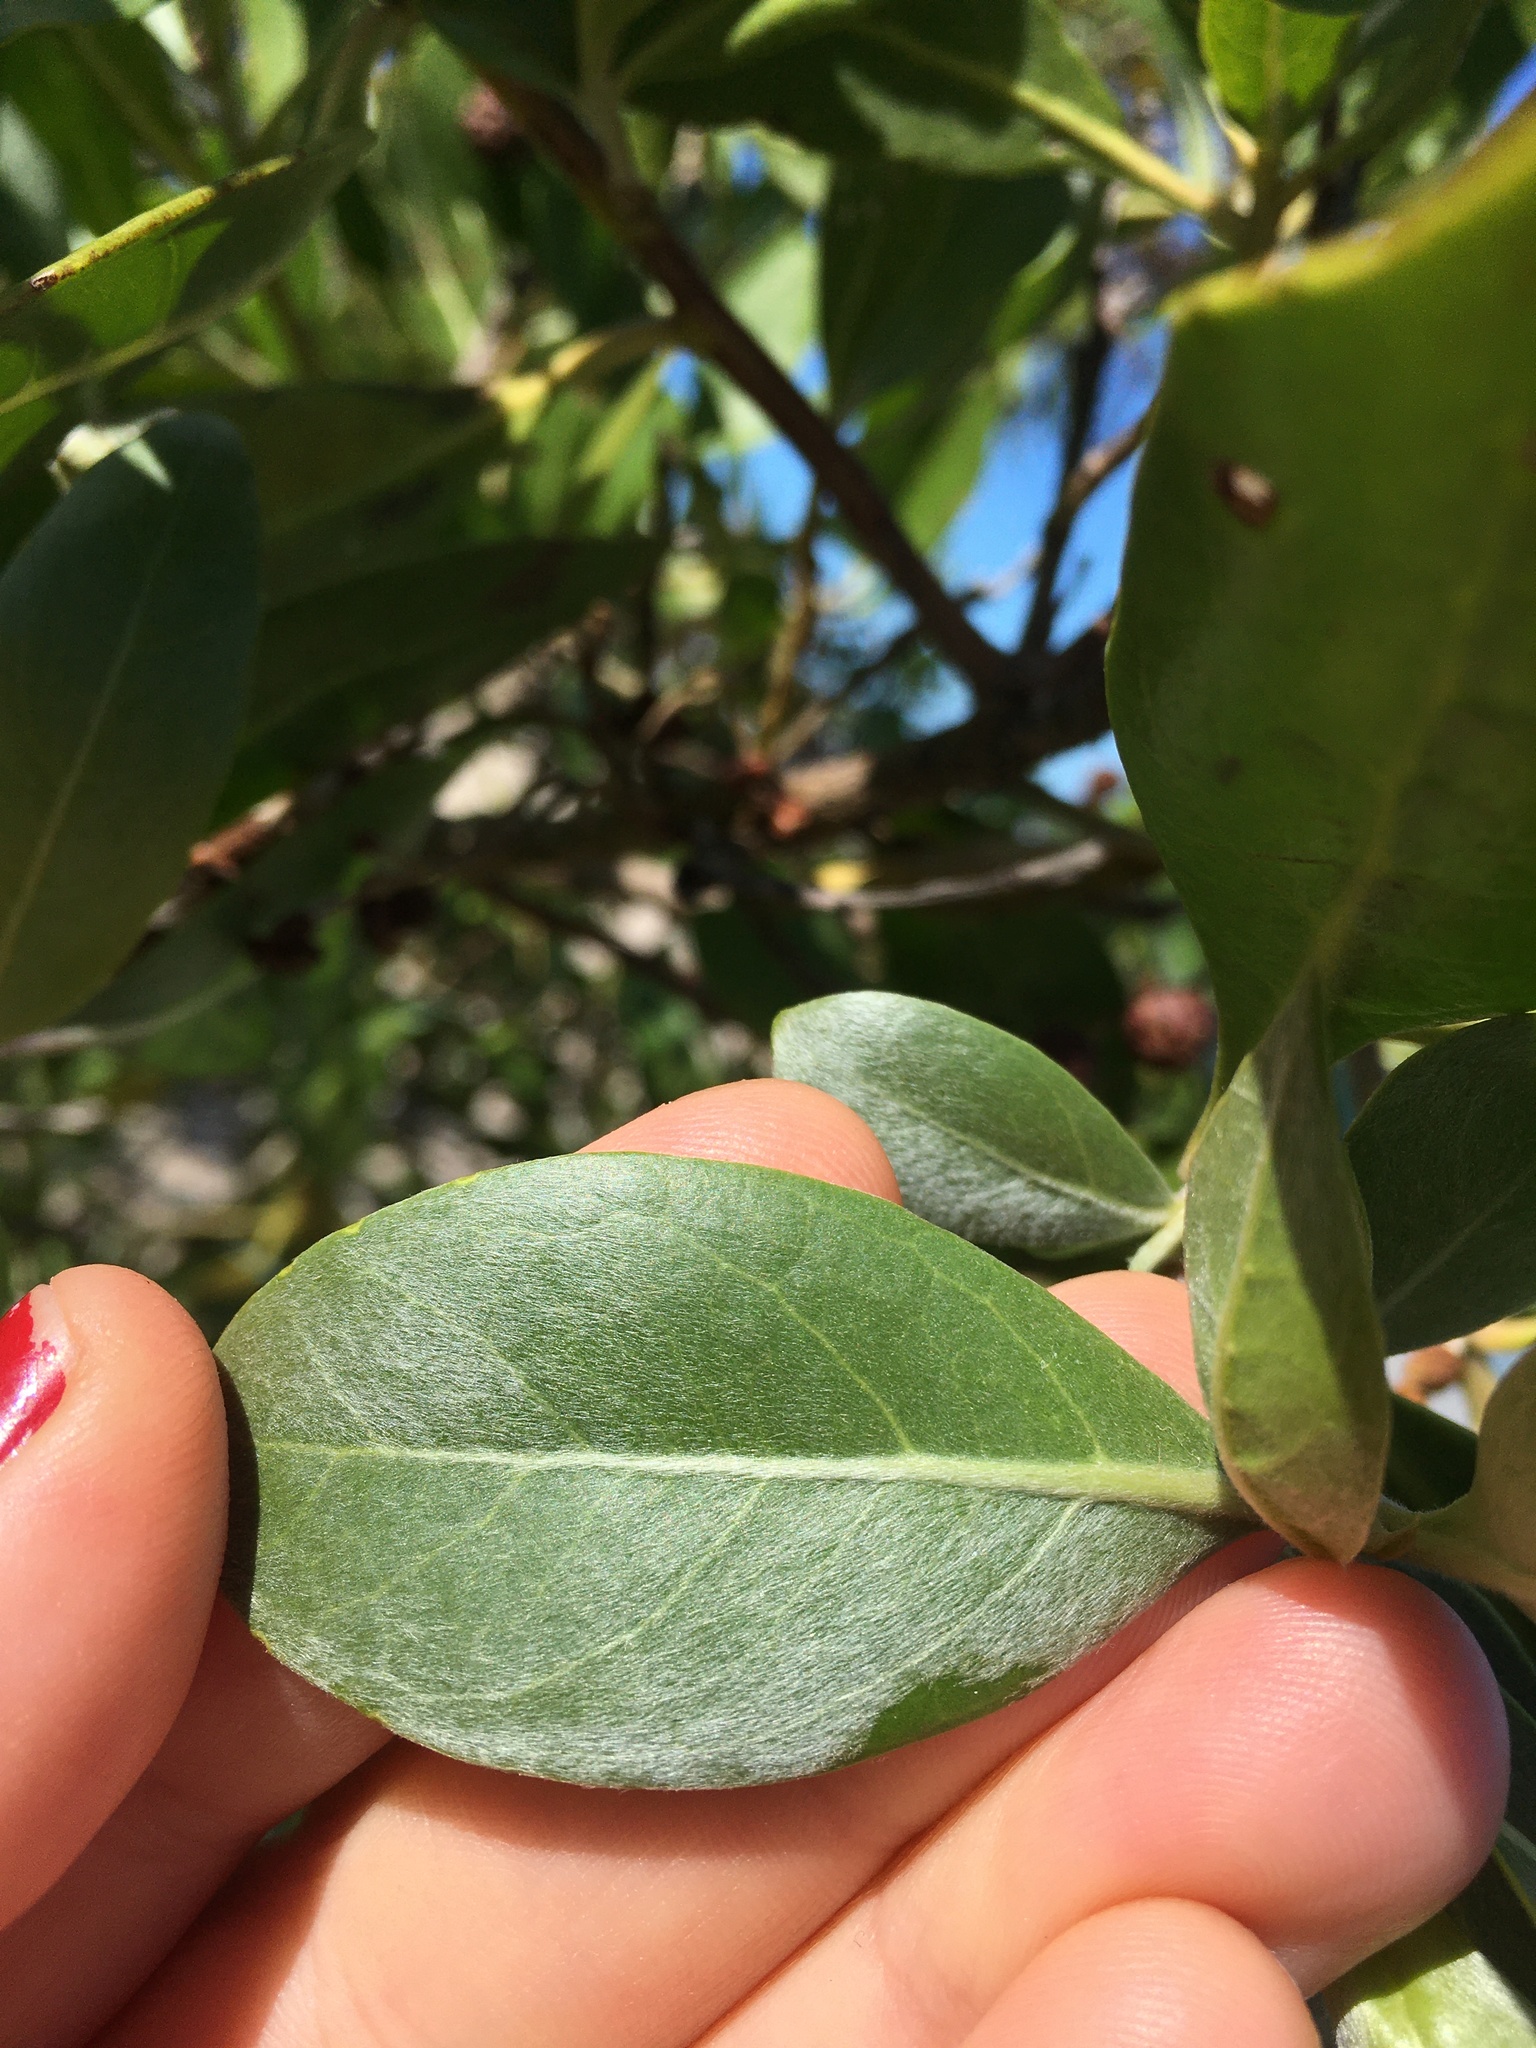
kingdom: Plantae
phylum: Tracheophyta
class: Magnoliopsida
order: Myrtales
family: Combretaceae
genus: Conocarpus
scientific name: Conocarpus erectus
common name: Button mangrove
